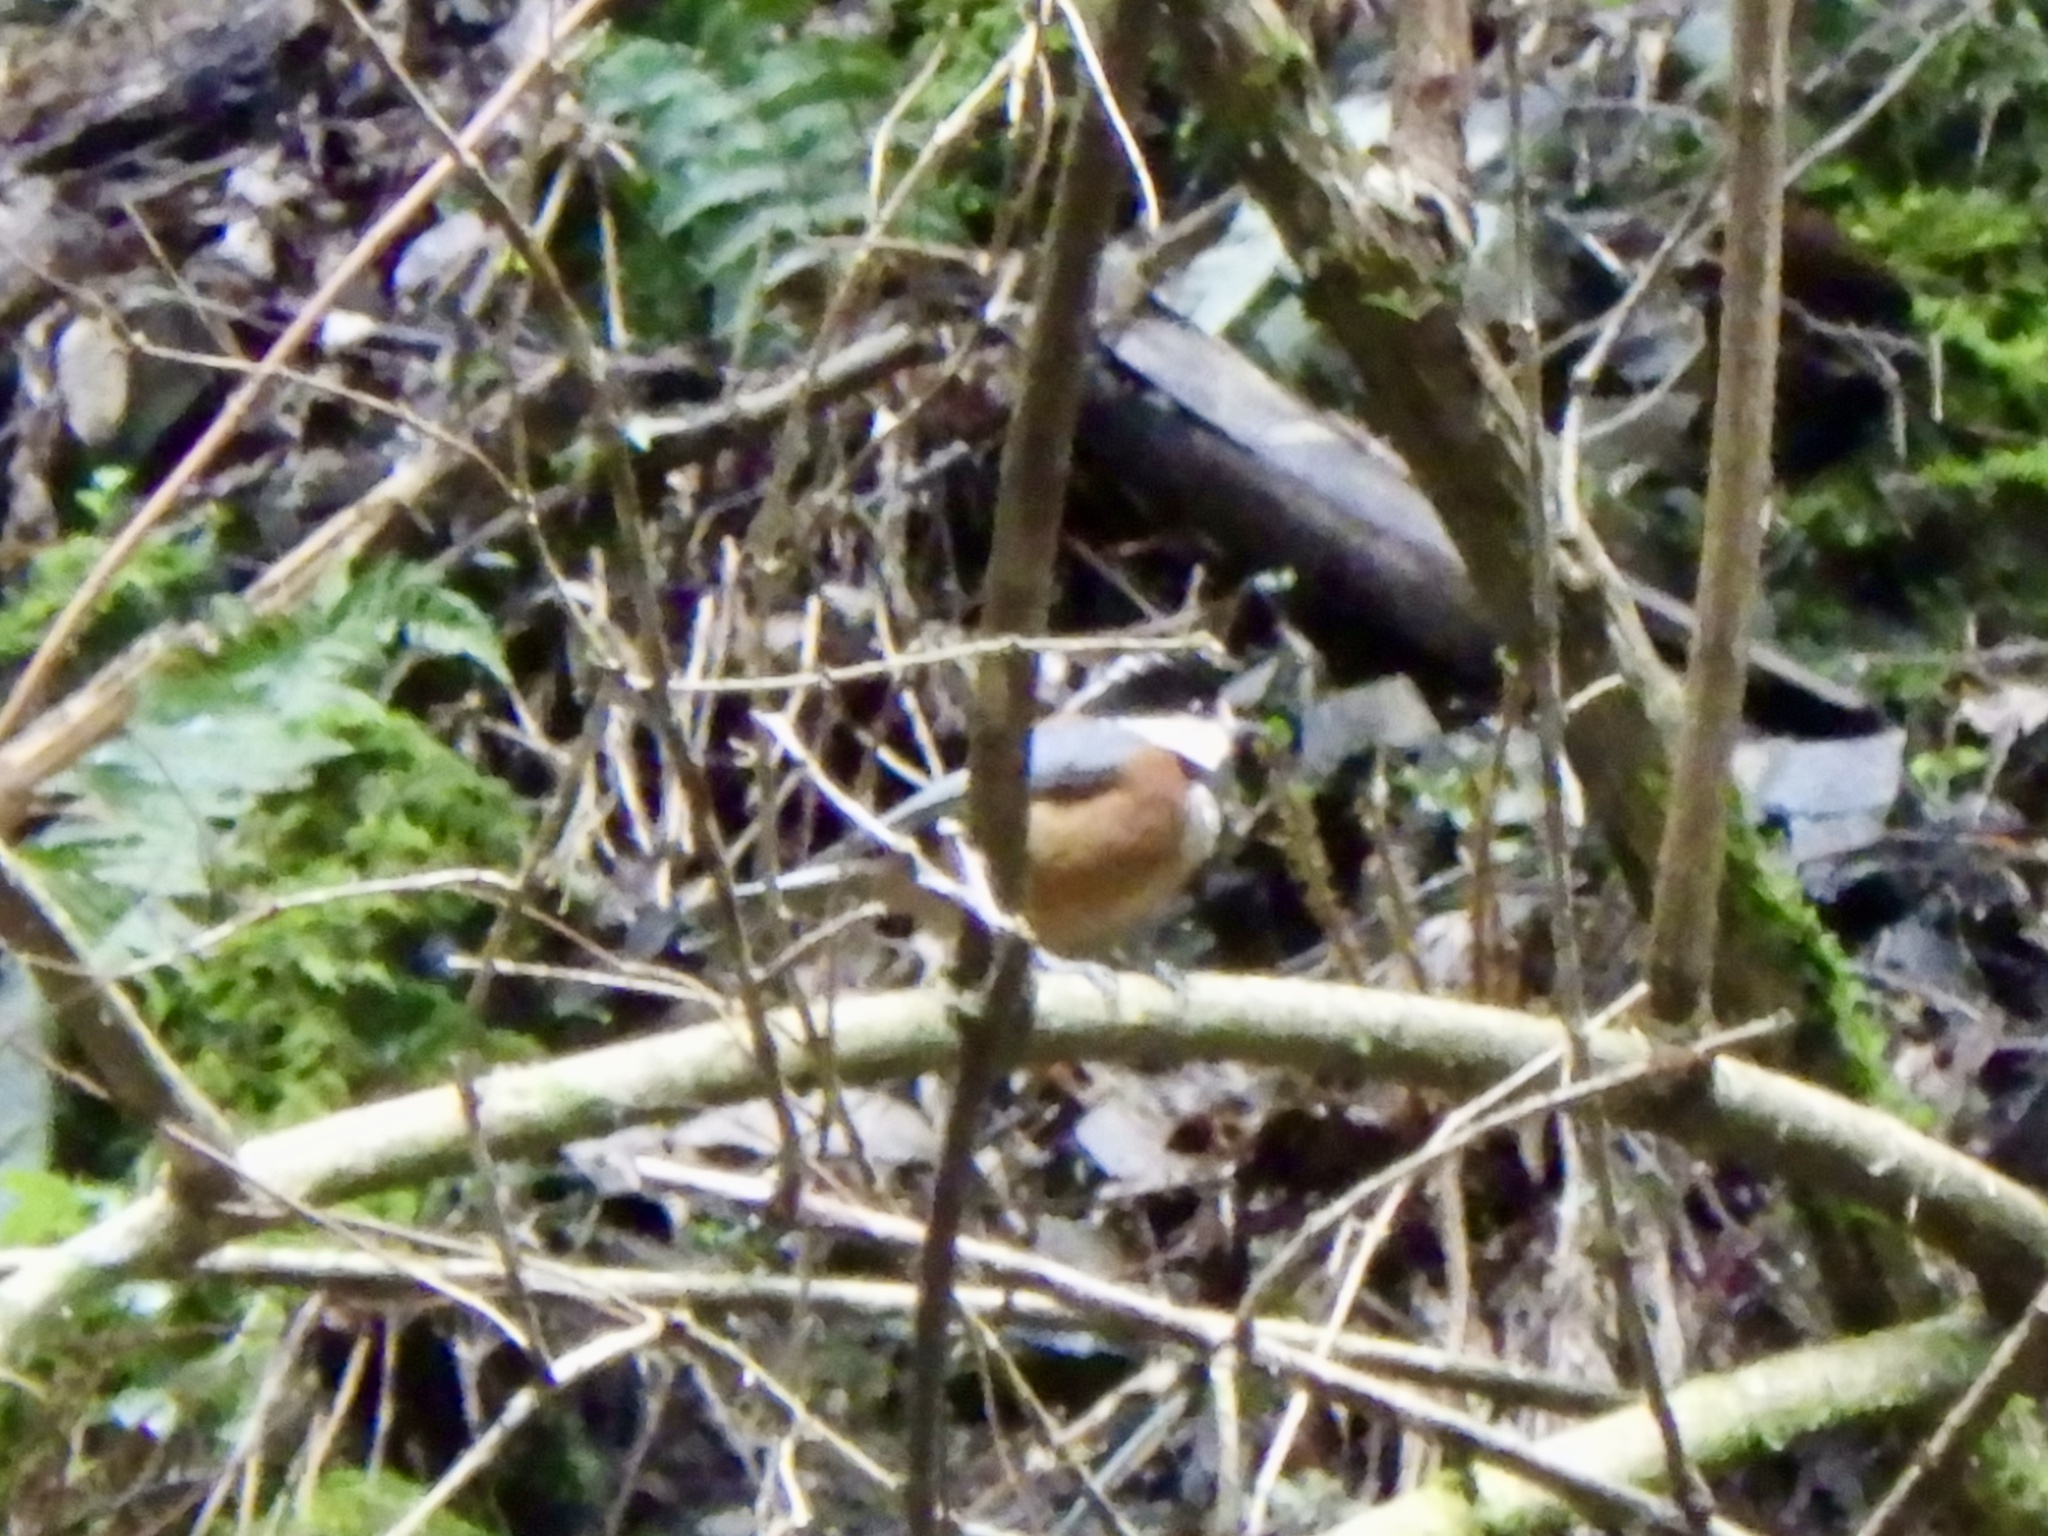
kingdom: Animalia
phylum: Chordata
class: Aves
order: Passeriformes
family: Paridae
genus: Poecile
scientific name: Poecile varius
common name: Varied tit
